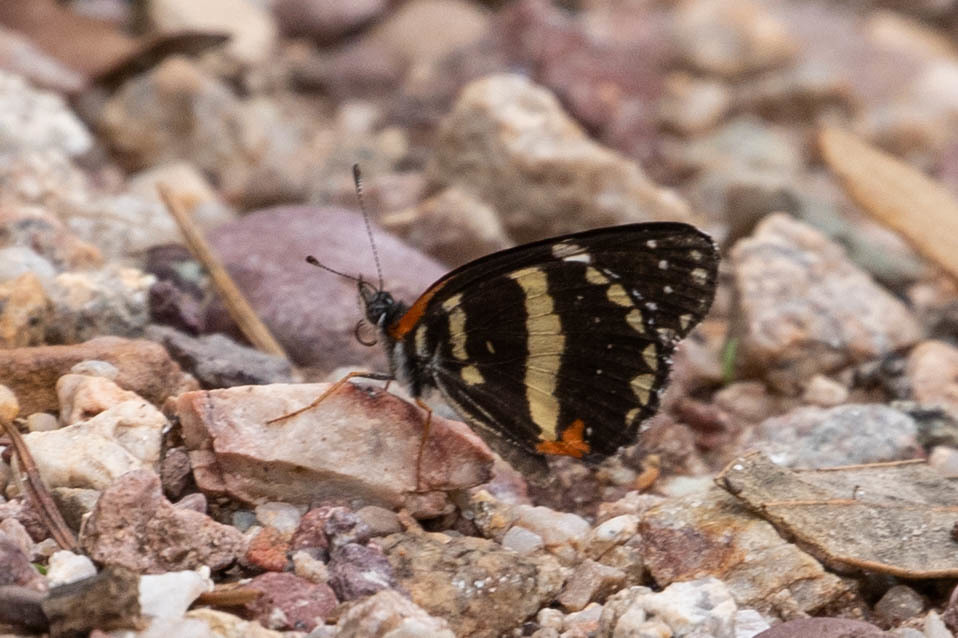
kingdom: Animalia
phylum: Arthropoda
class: Insecta
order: Lepidoptera
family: Nymphalidae
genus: Chlosyne
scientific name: Chlosyne lacinia
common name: Bordered patch
